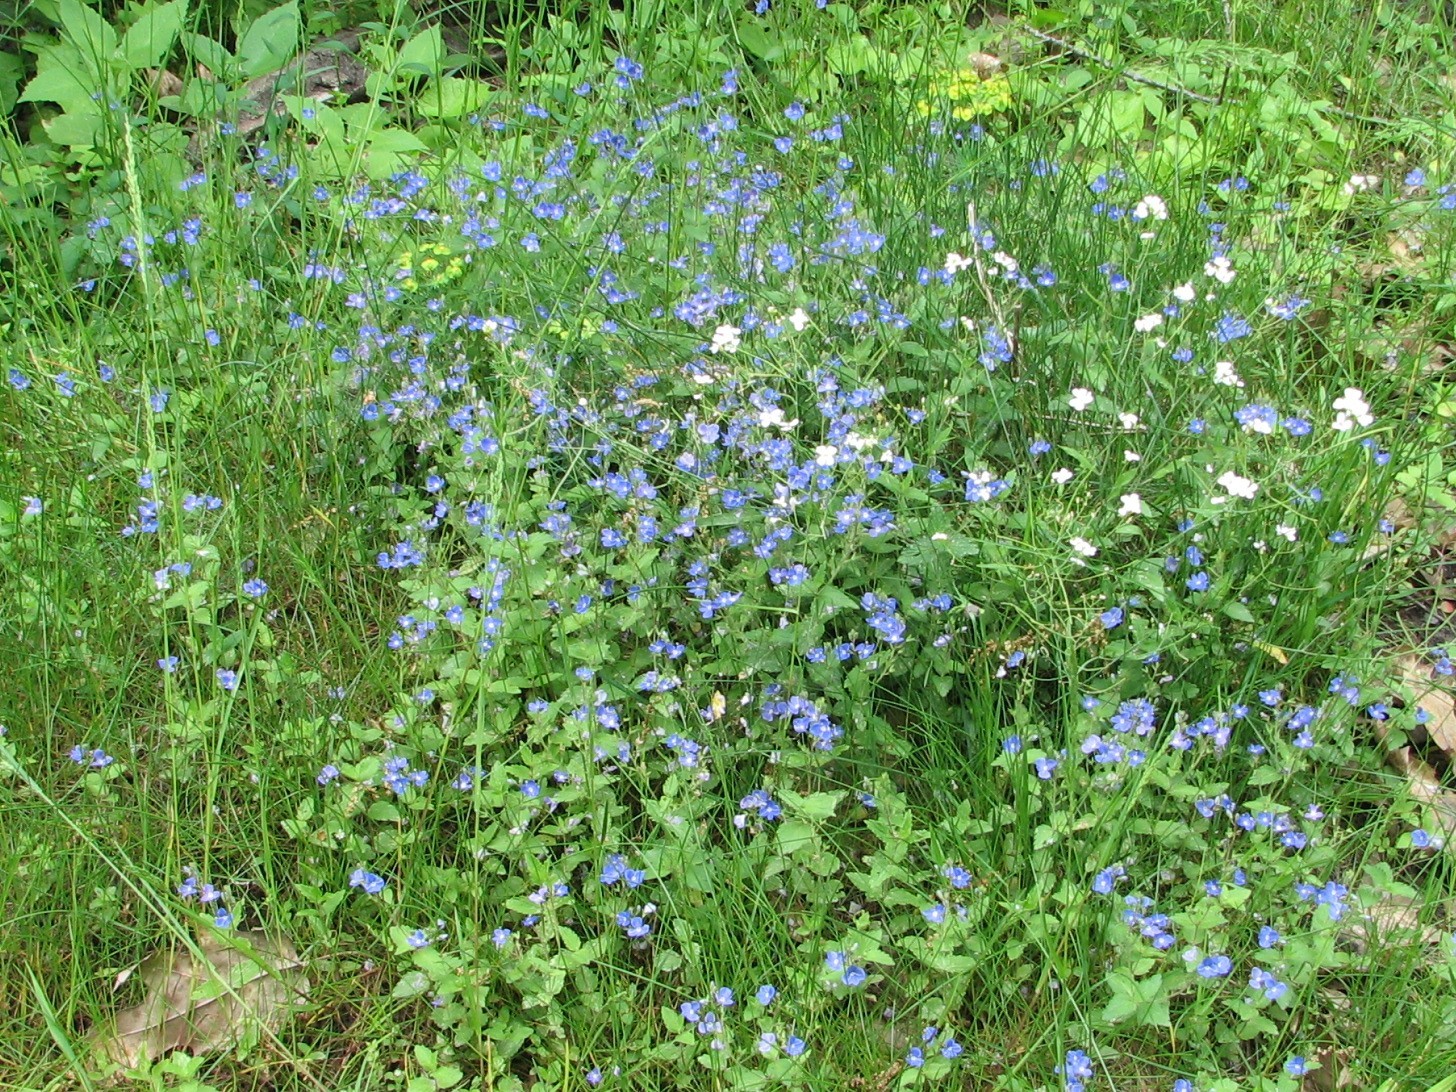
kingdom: Plantae
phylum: Tracheophyta
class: Magnoliopsida
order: Lamiales
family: Plantaginaceae
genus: Veronica
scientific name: Veronica chamaedrys
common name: Germander speedwell
